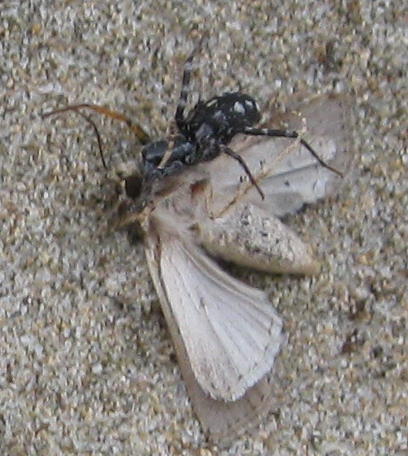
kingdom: Animalia
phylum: Arthropoda
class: Arachnida
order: Araneae
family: Corinnidae
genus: Nyssus
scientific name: Nyssus coloripes
